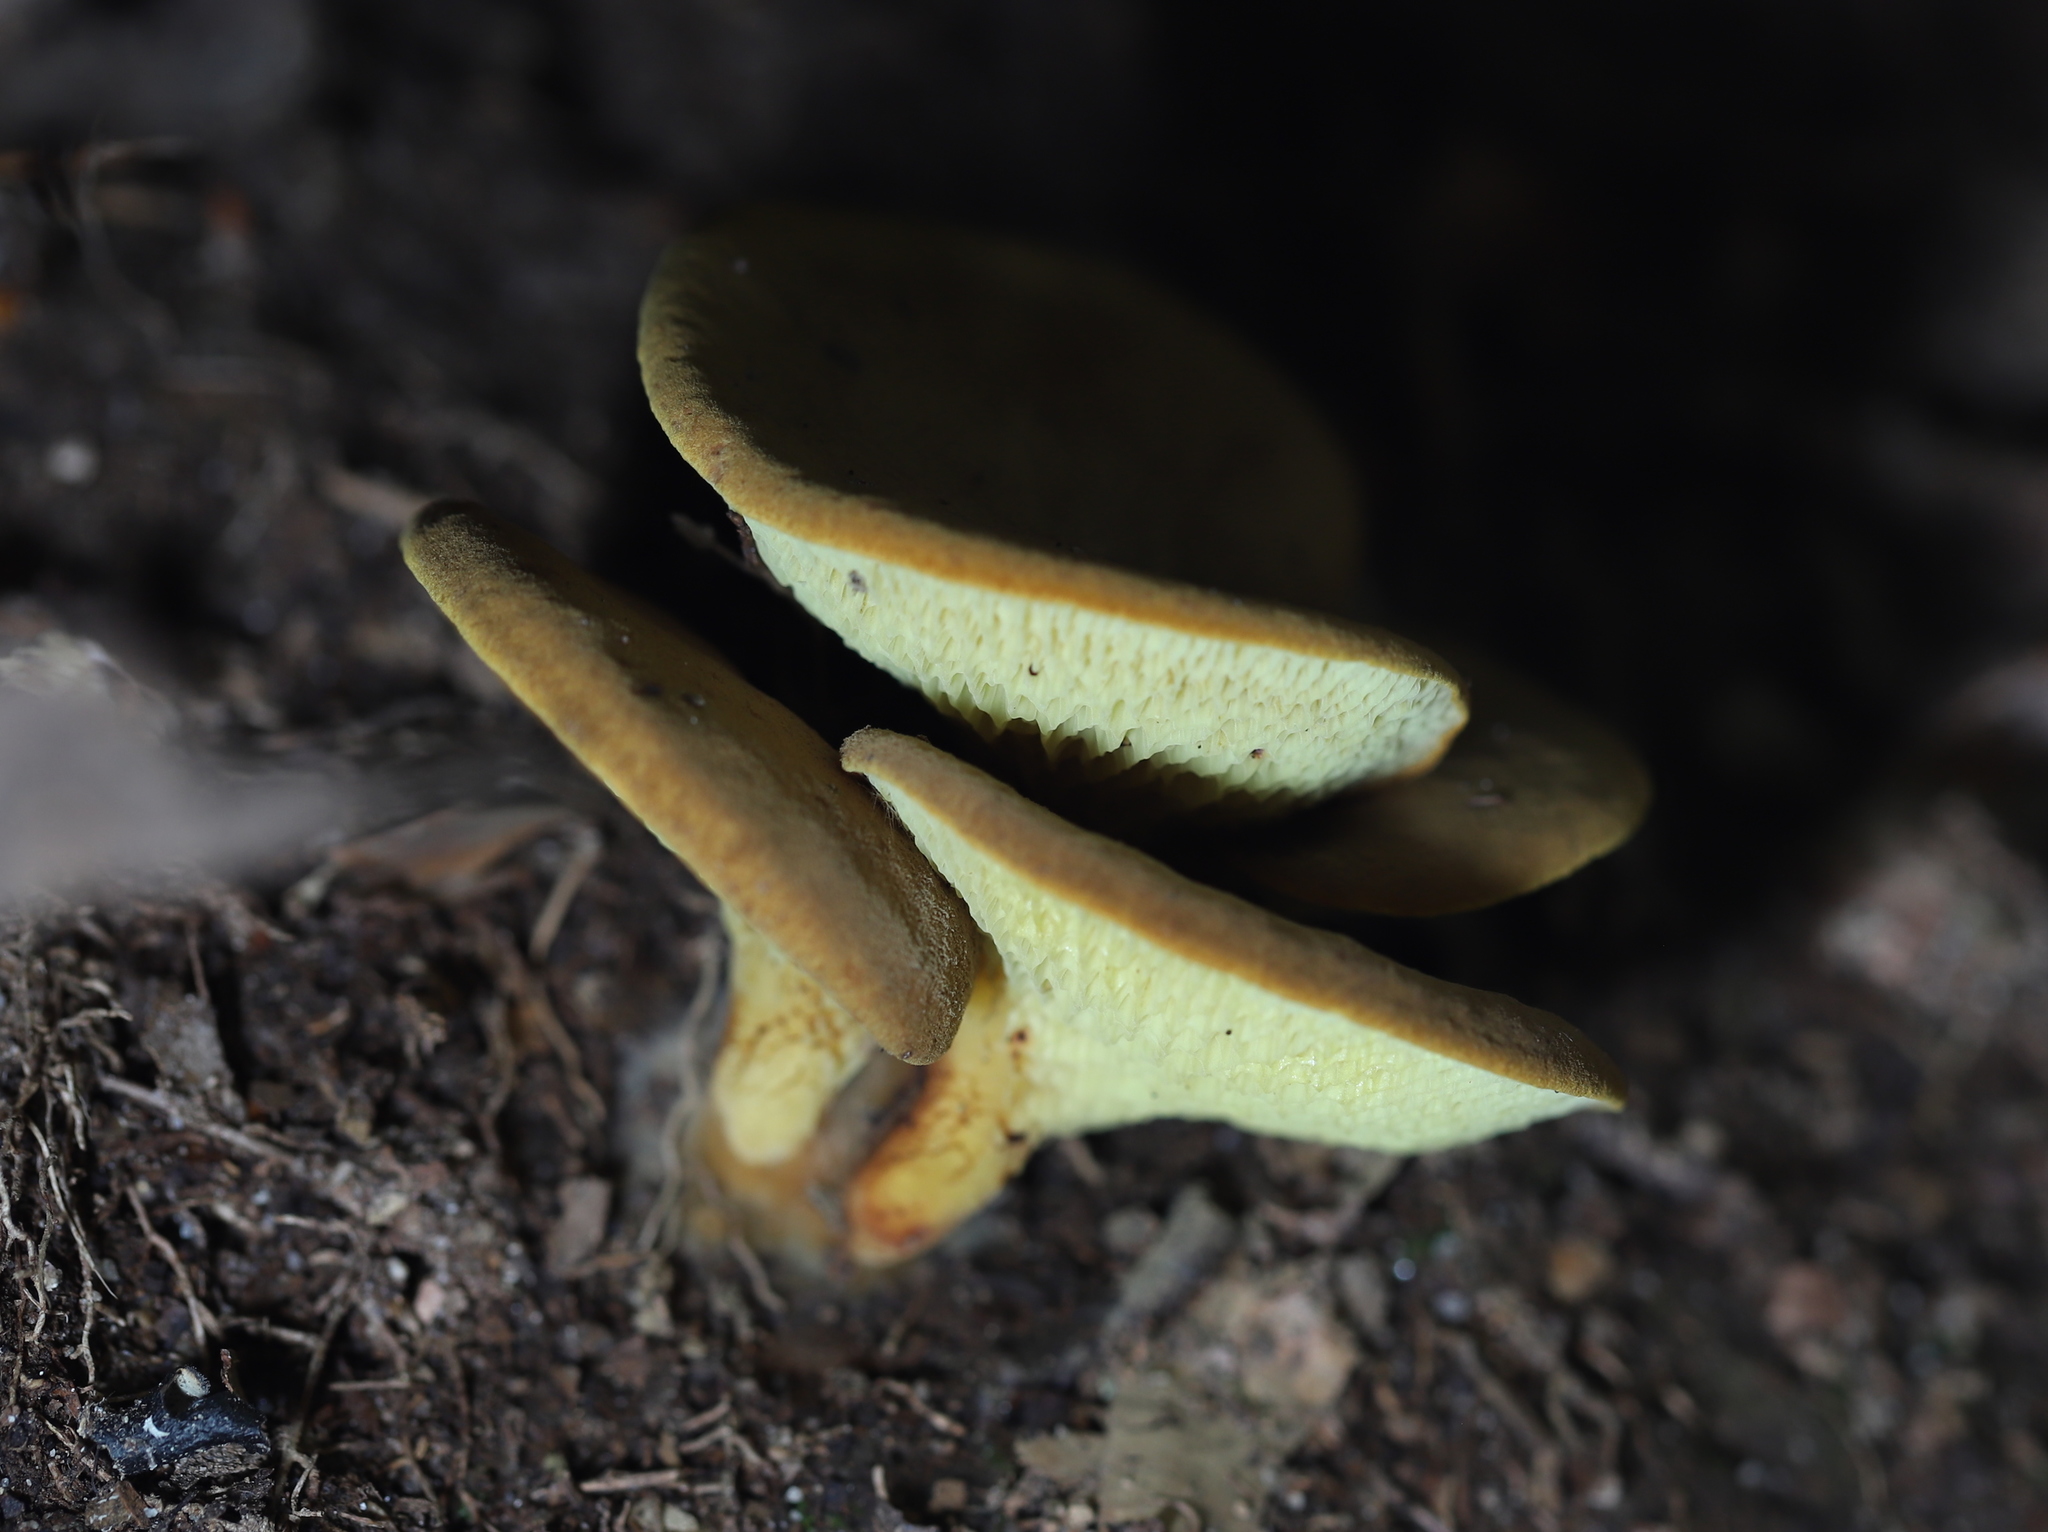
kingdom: Fungi
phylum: Basidiomycota
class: Agaricomycetes
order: Boletales
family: Boletinellaceae
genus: Boletinellus
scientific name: Boletinellus merulioides
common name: Ash tree bolete
